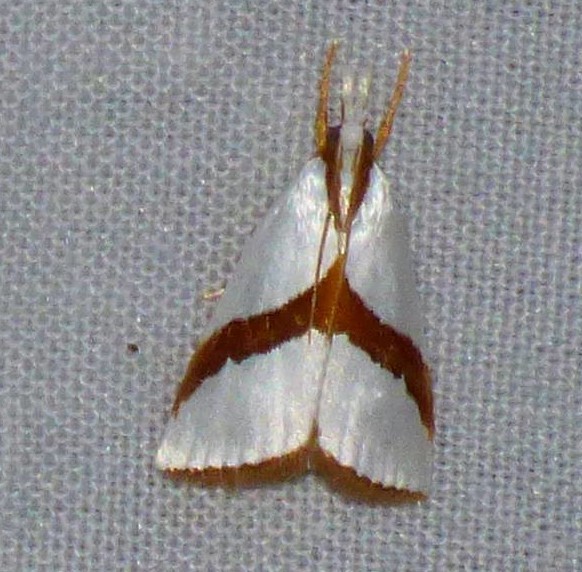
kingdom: Animalia
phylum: Arthropoda
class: Insecta
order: Lepidoptera
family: Crambidae
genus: Vaxi
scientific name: Vaxi critica
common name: Straight-lined vaxi moth
